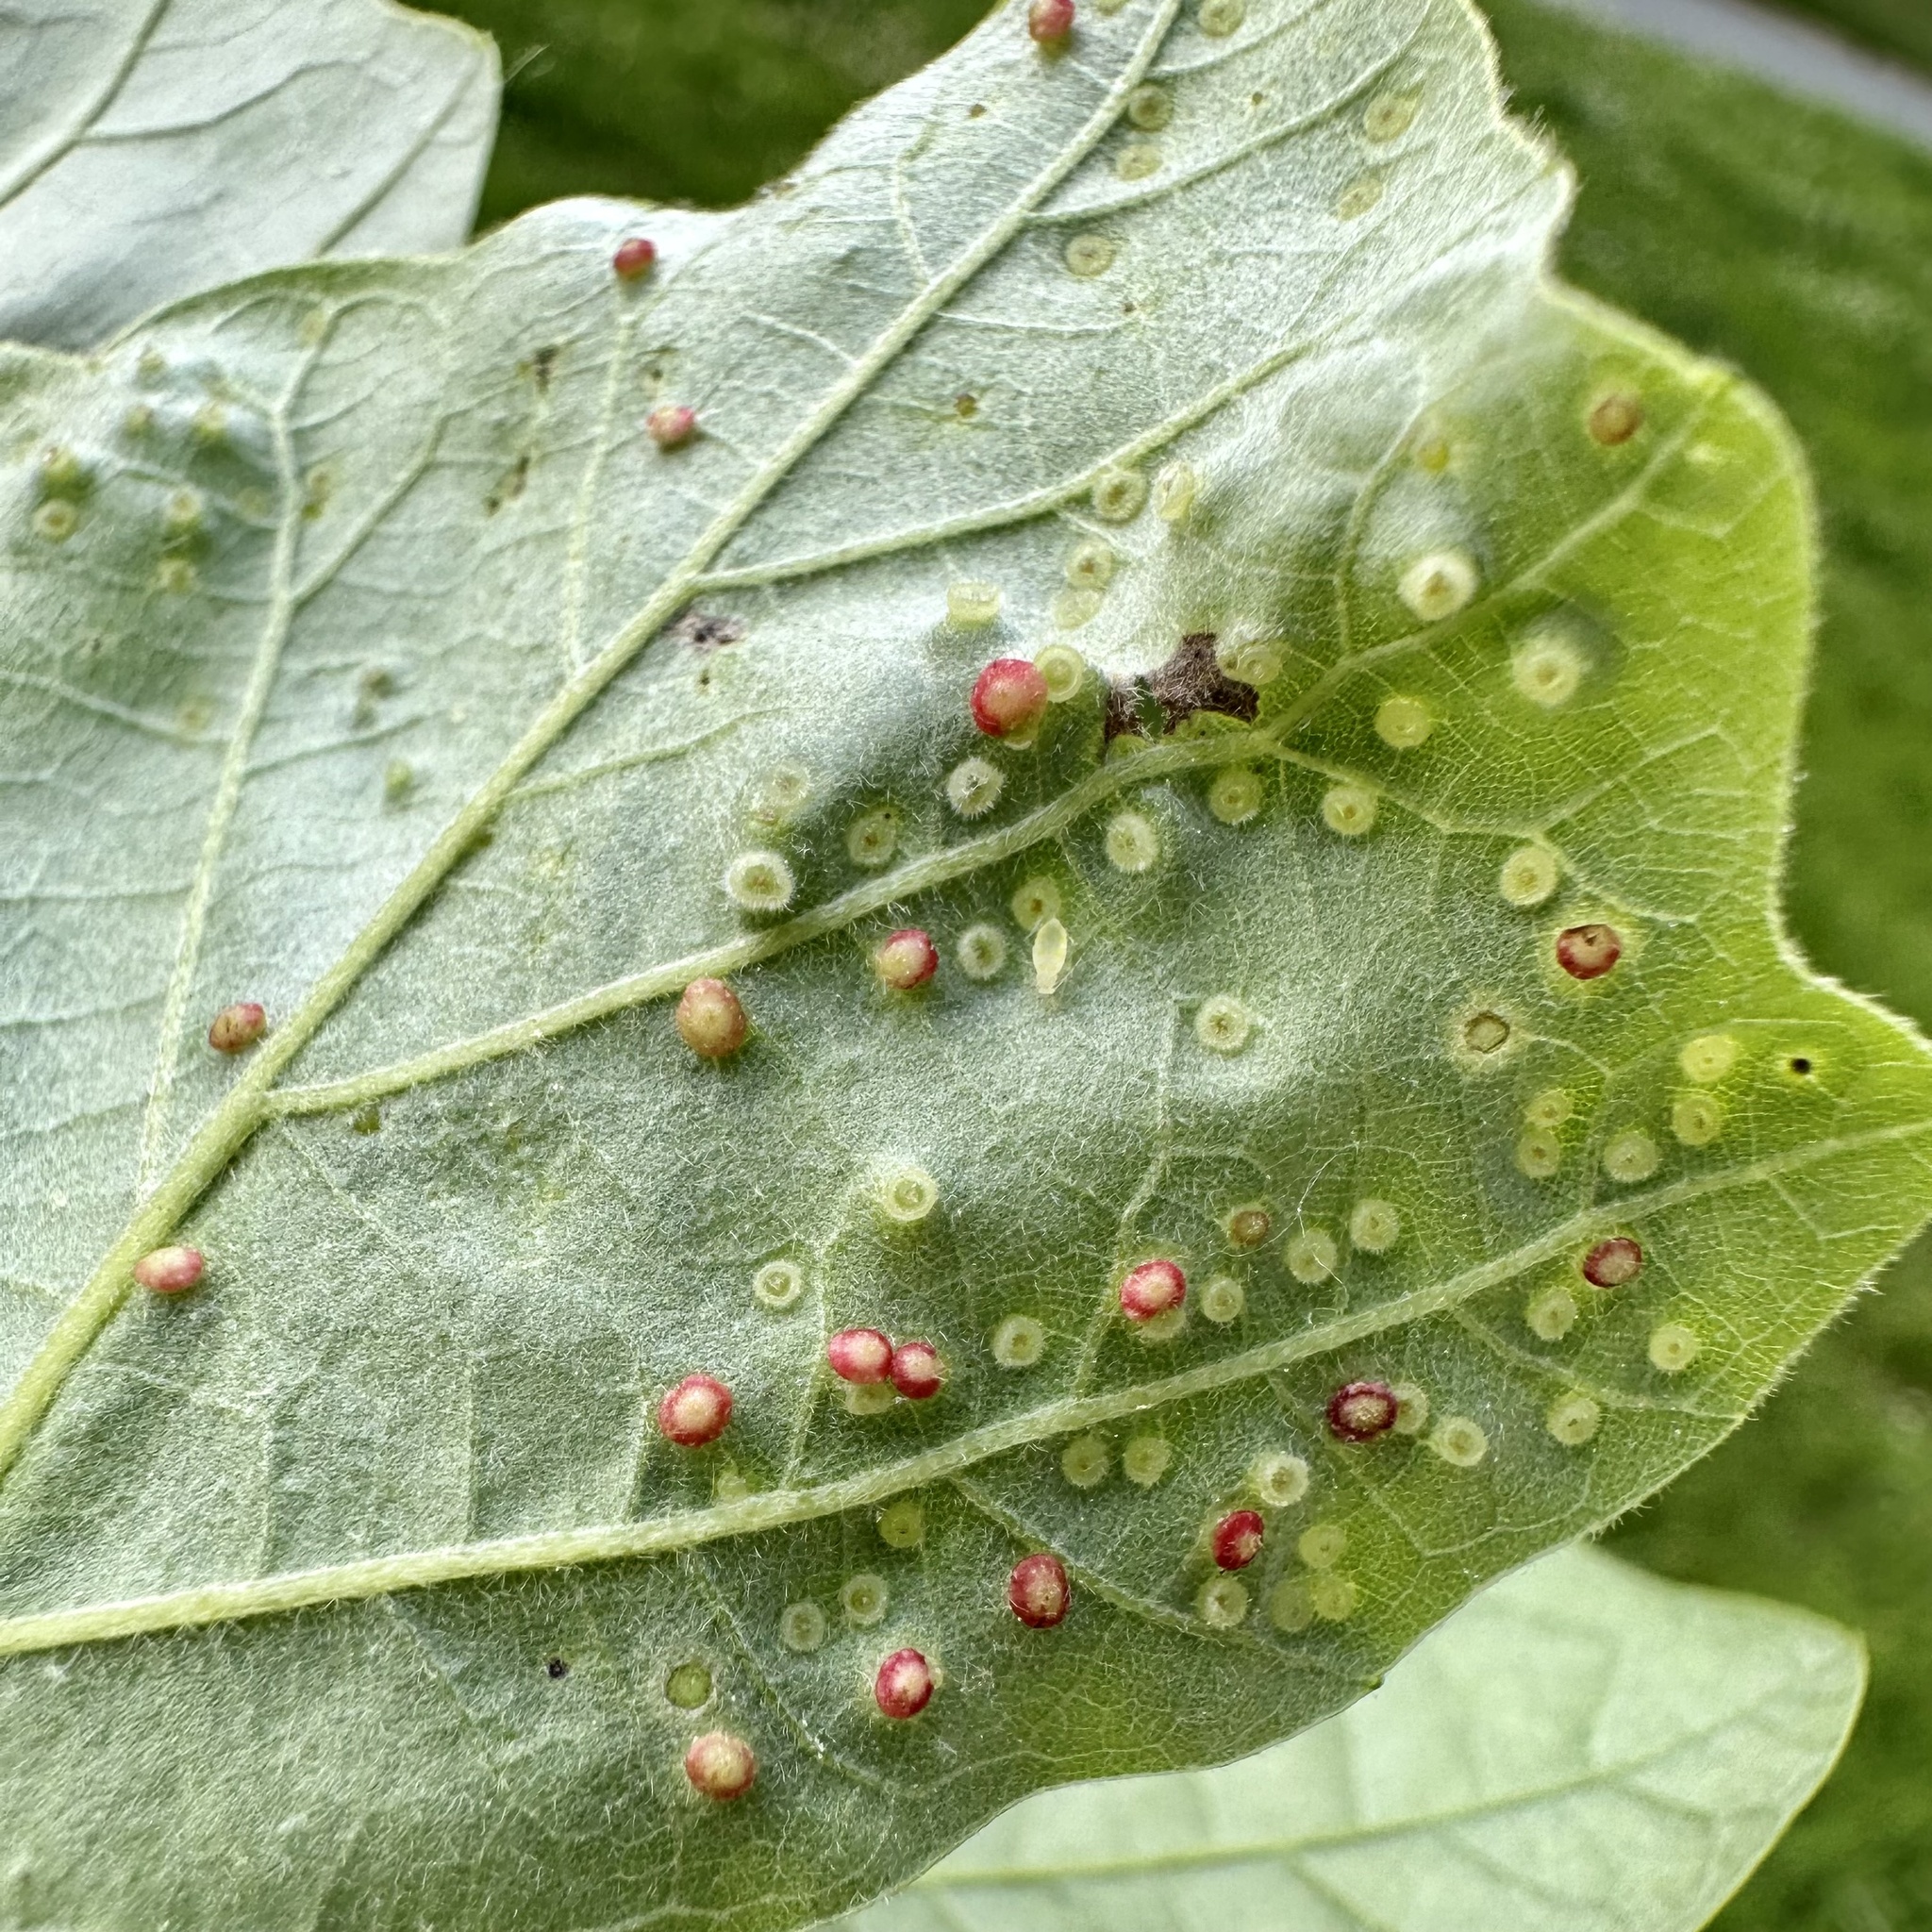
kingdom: Animalia
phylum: Arthropoda
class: Insecta
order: Hymenoptera
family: Cynipidae
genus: Neuroterus
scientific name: Neuroterus saltarius
